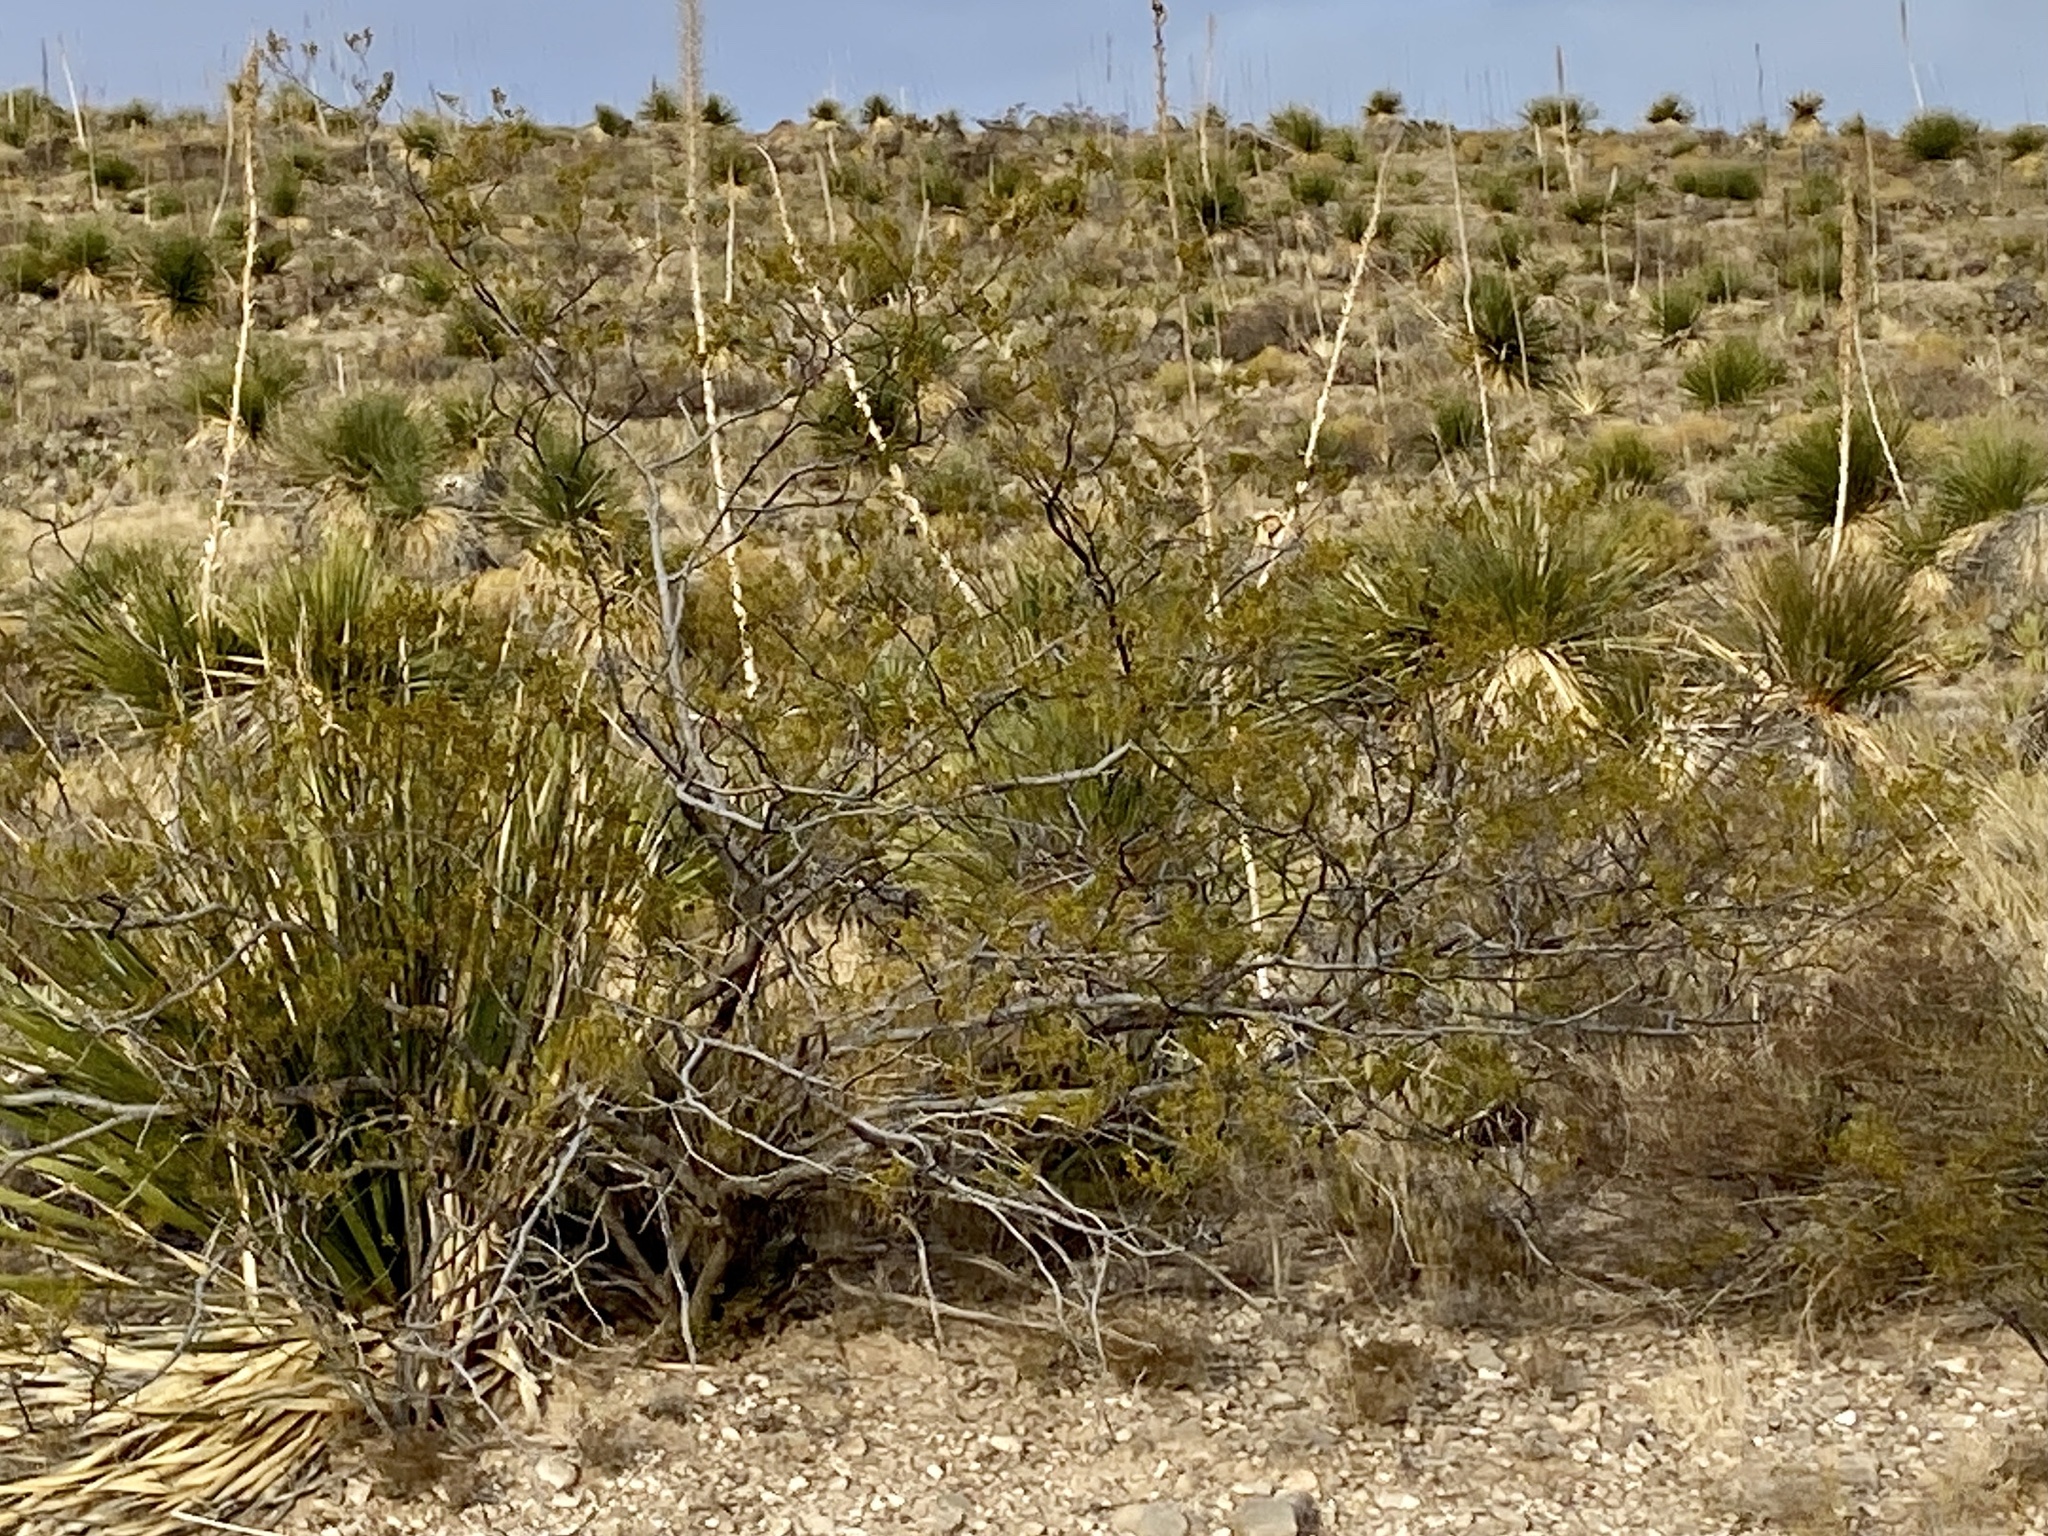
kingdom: Plantae
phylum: Tracheophyta
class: Magnoliopsida
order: Zygophyllales
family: Zygophyllaceae
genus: Larrea
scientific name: Larrea tridentata
